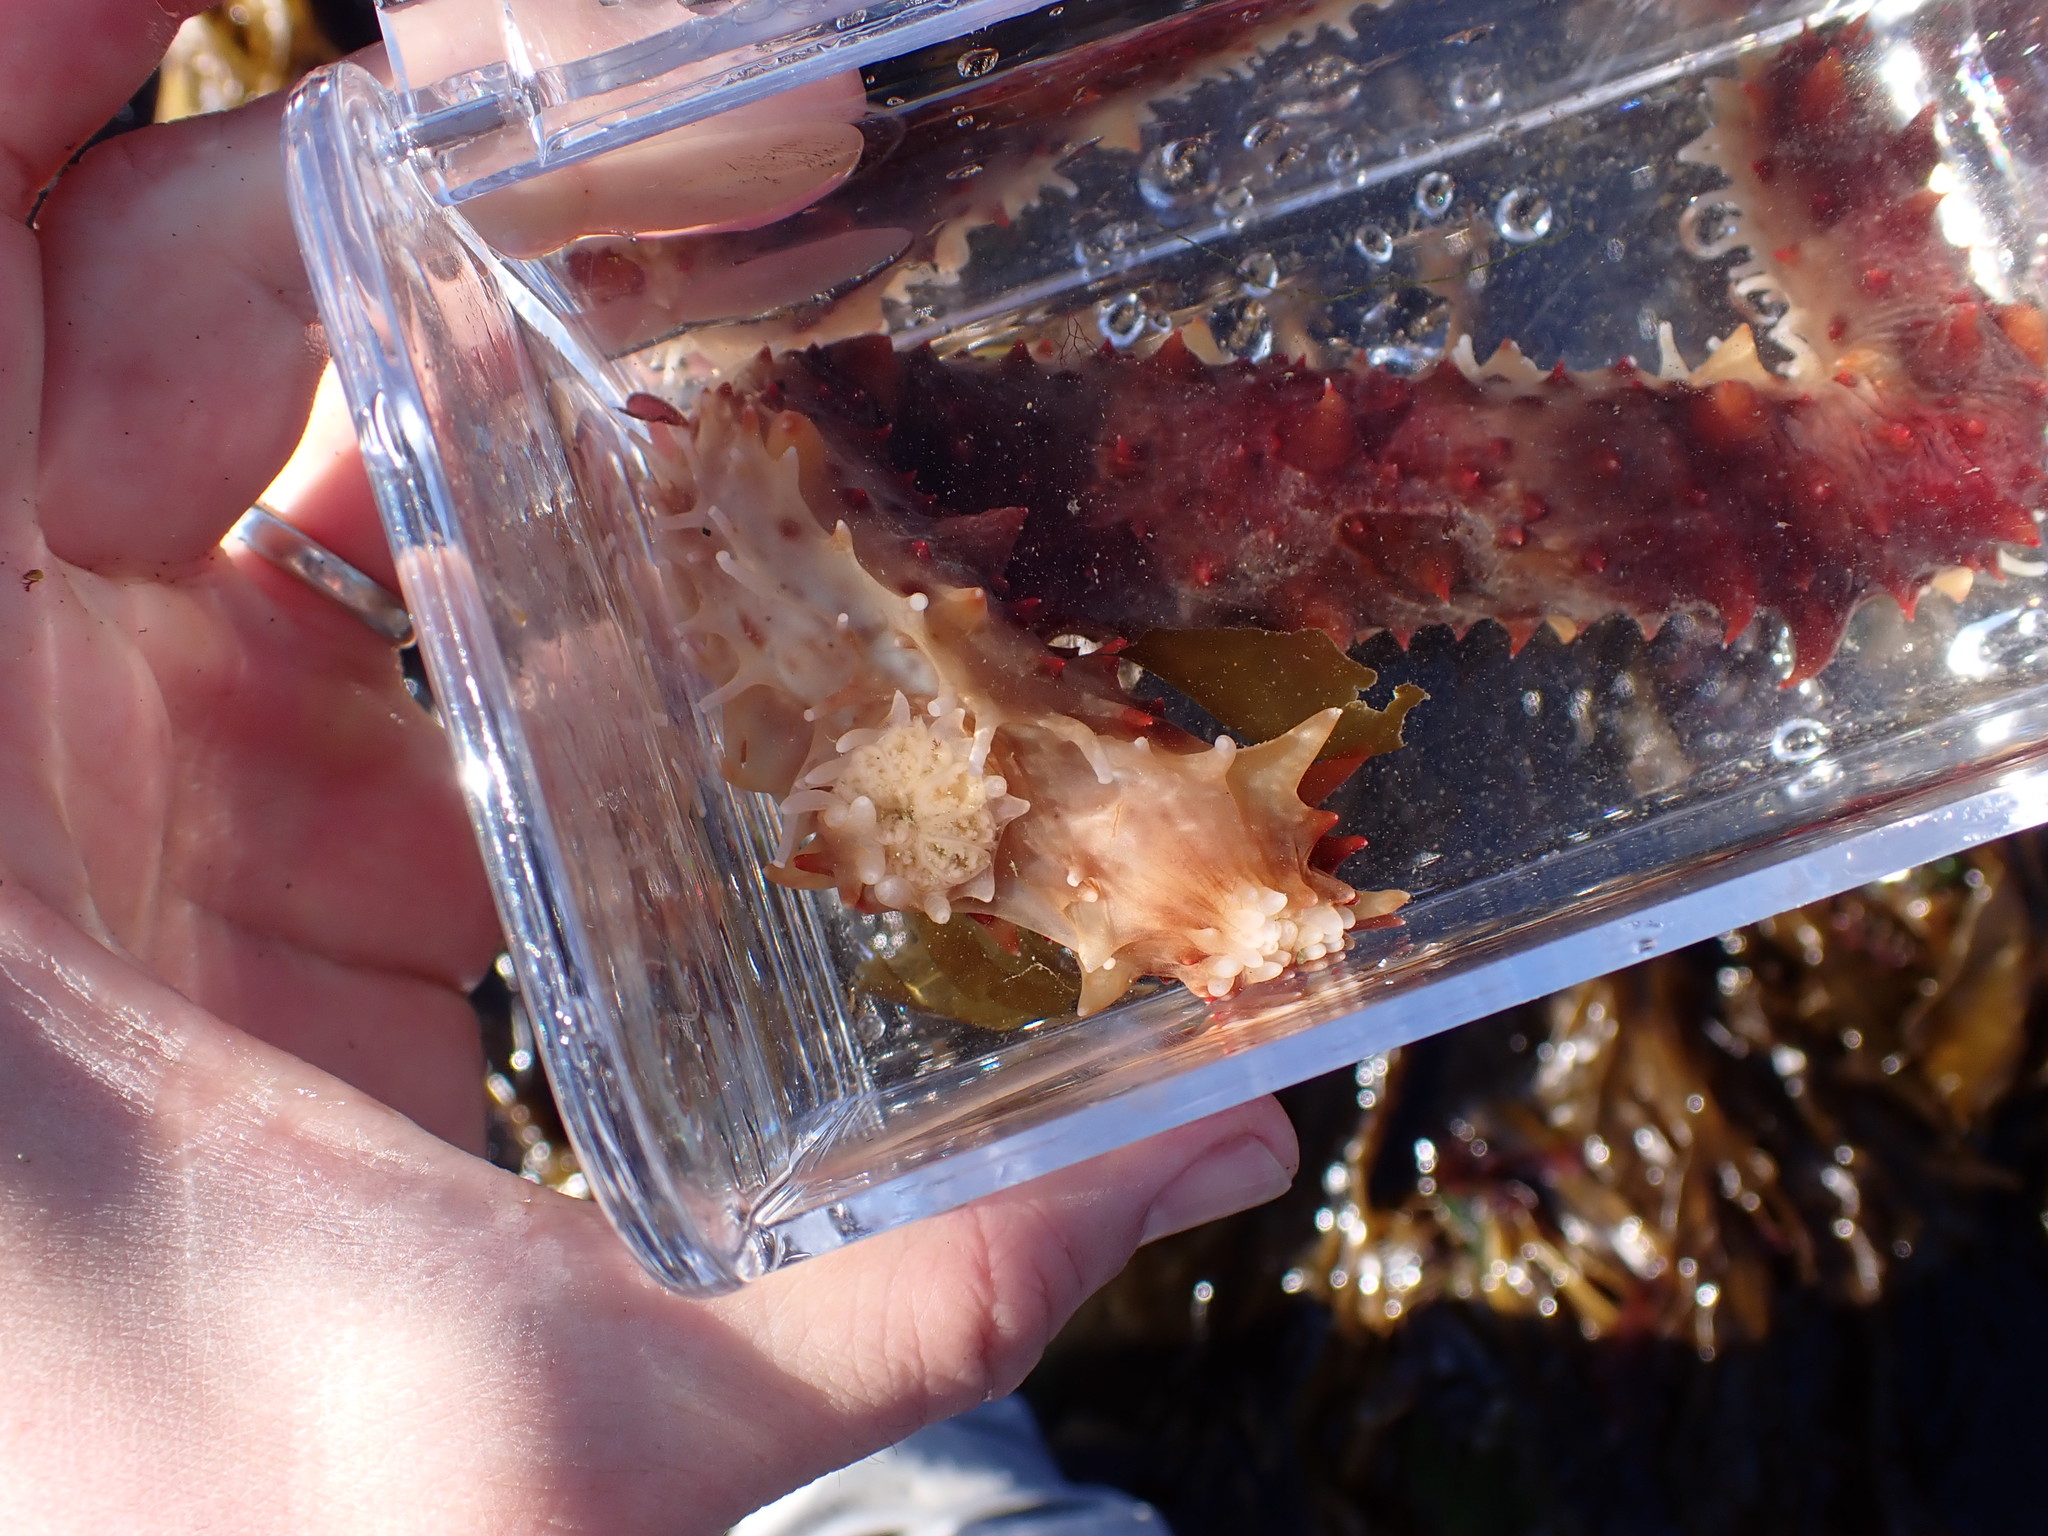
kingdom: Animalia
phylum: Echinodermata
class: Holothuroidea
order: Synallactida
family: Stichopodidae
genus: Apostichopus
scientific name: Apostichopus californicus
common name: California sea cucumber
